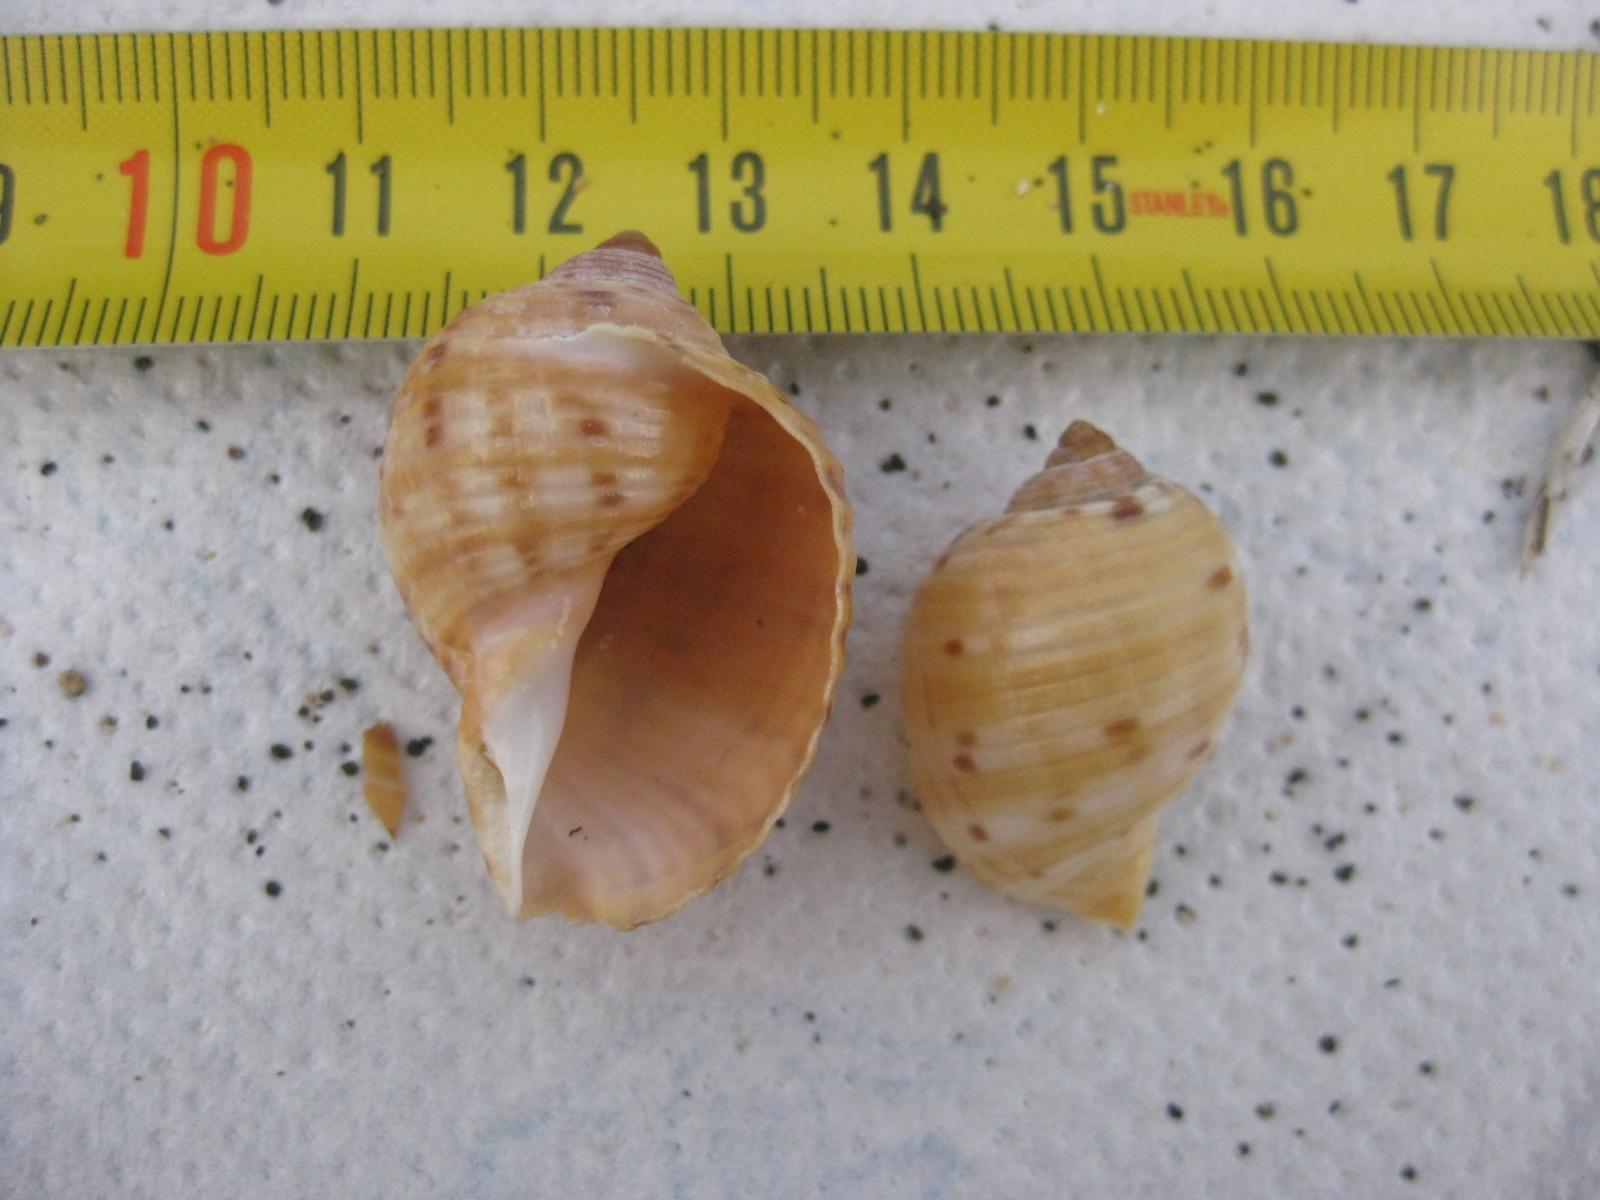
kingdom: Animalia
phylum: Mollusca
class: Gastropoda
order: Littorinimorpha
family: Tonnidae
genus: Tonna
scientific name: Tonna tankervillii
